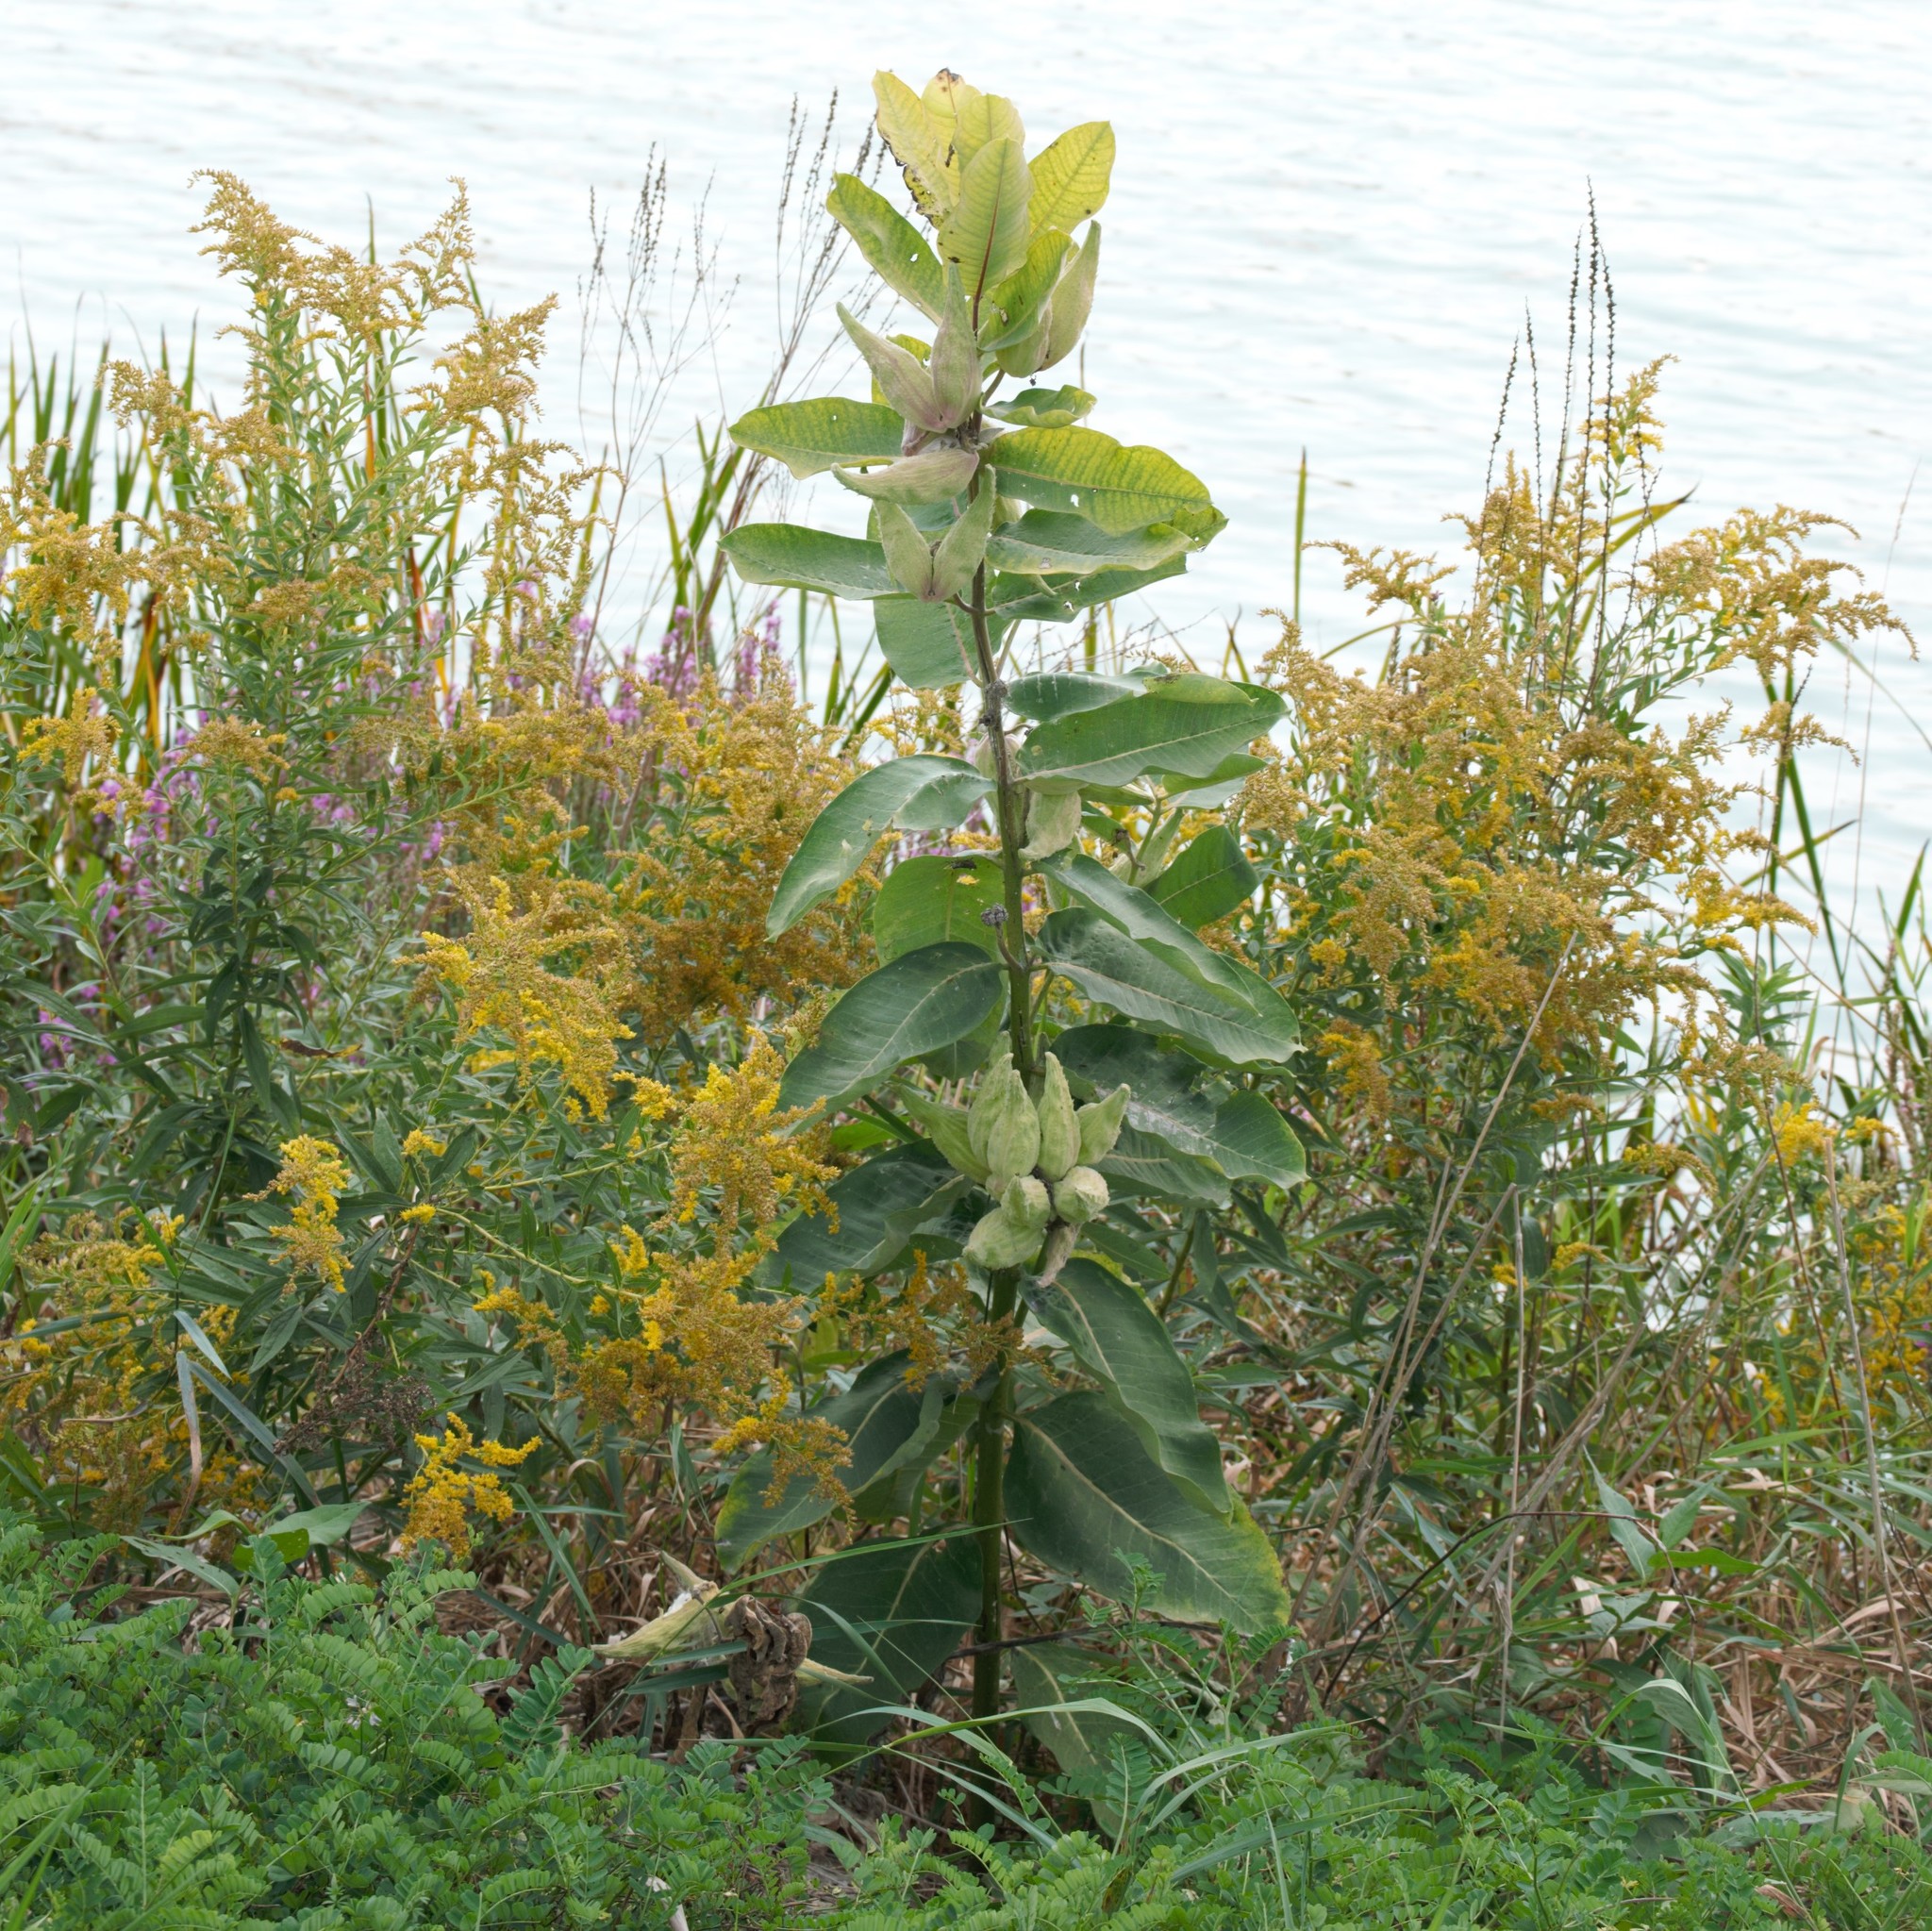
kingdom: Plantae
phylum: Tracheophyta
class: Magnoliopsida
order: Gentianales
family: Apocynaceae
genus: Asclepias
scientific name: Asclepias syriaca
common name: Common milkweed
